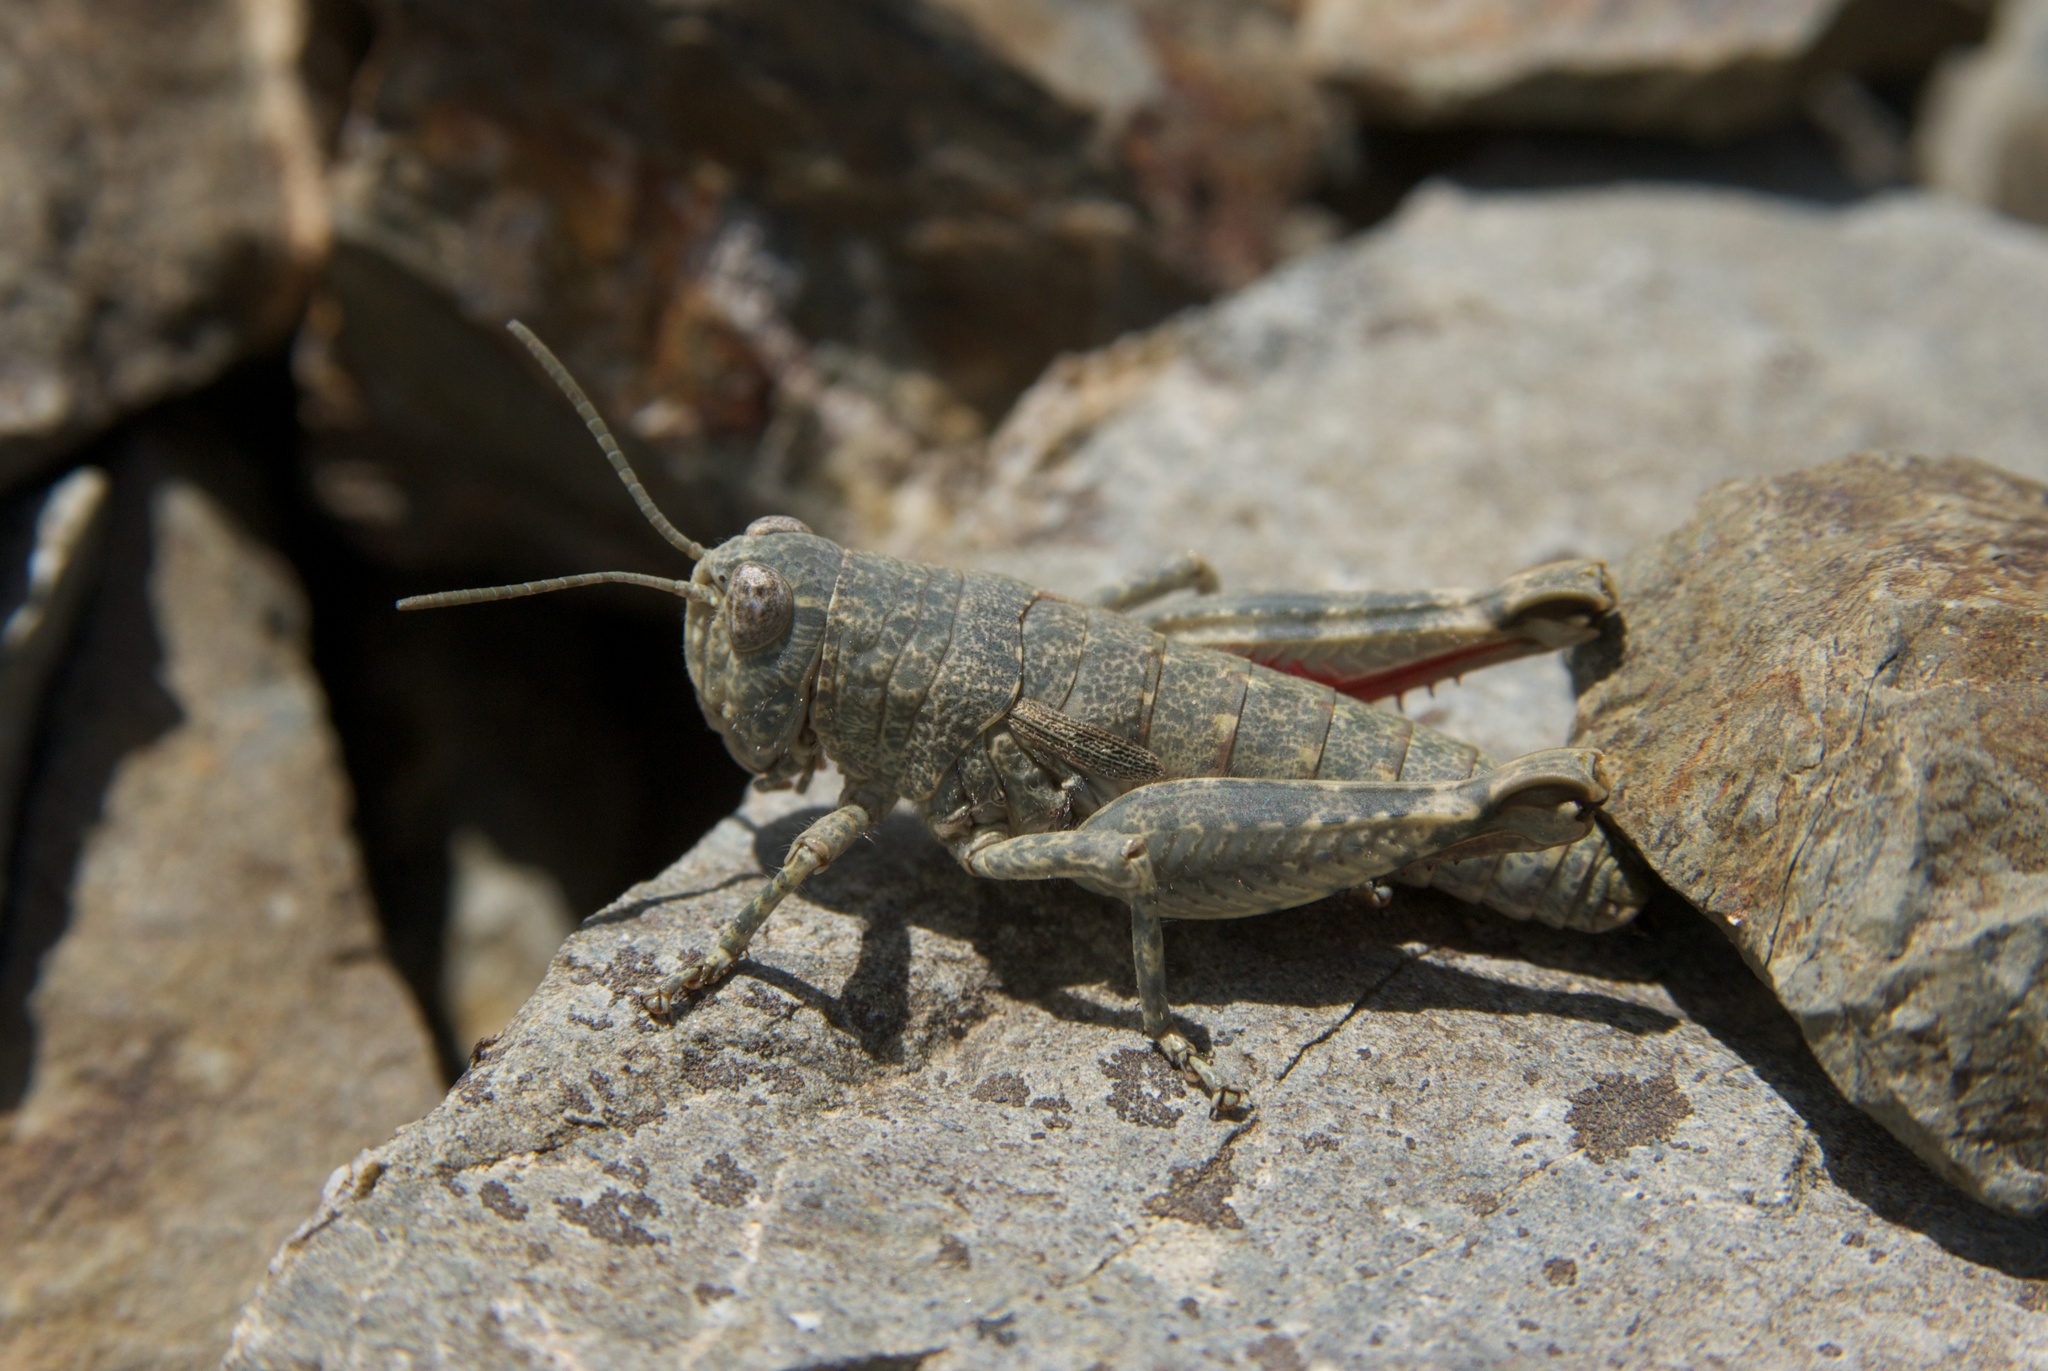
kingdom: Animalia
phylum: Arthropoda
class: Insecta
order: Orthoptera
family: Acrididae
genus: Sigaus
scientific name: Sigaus
